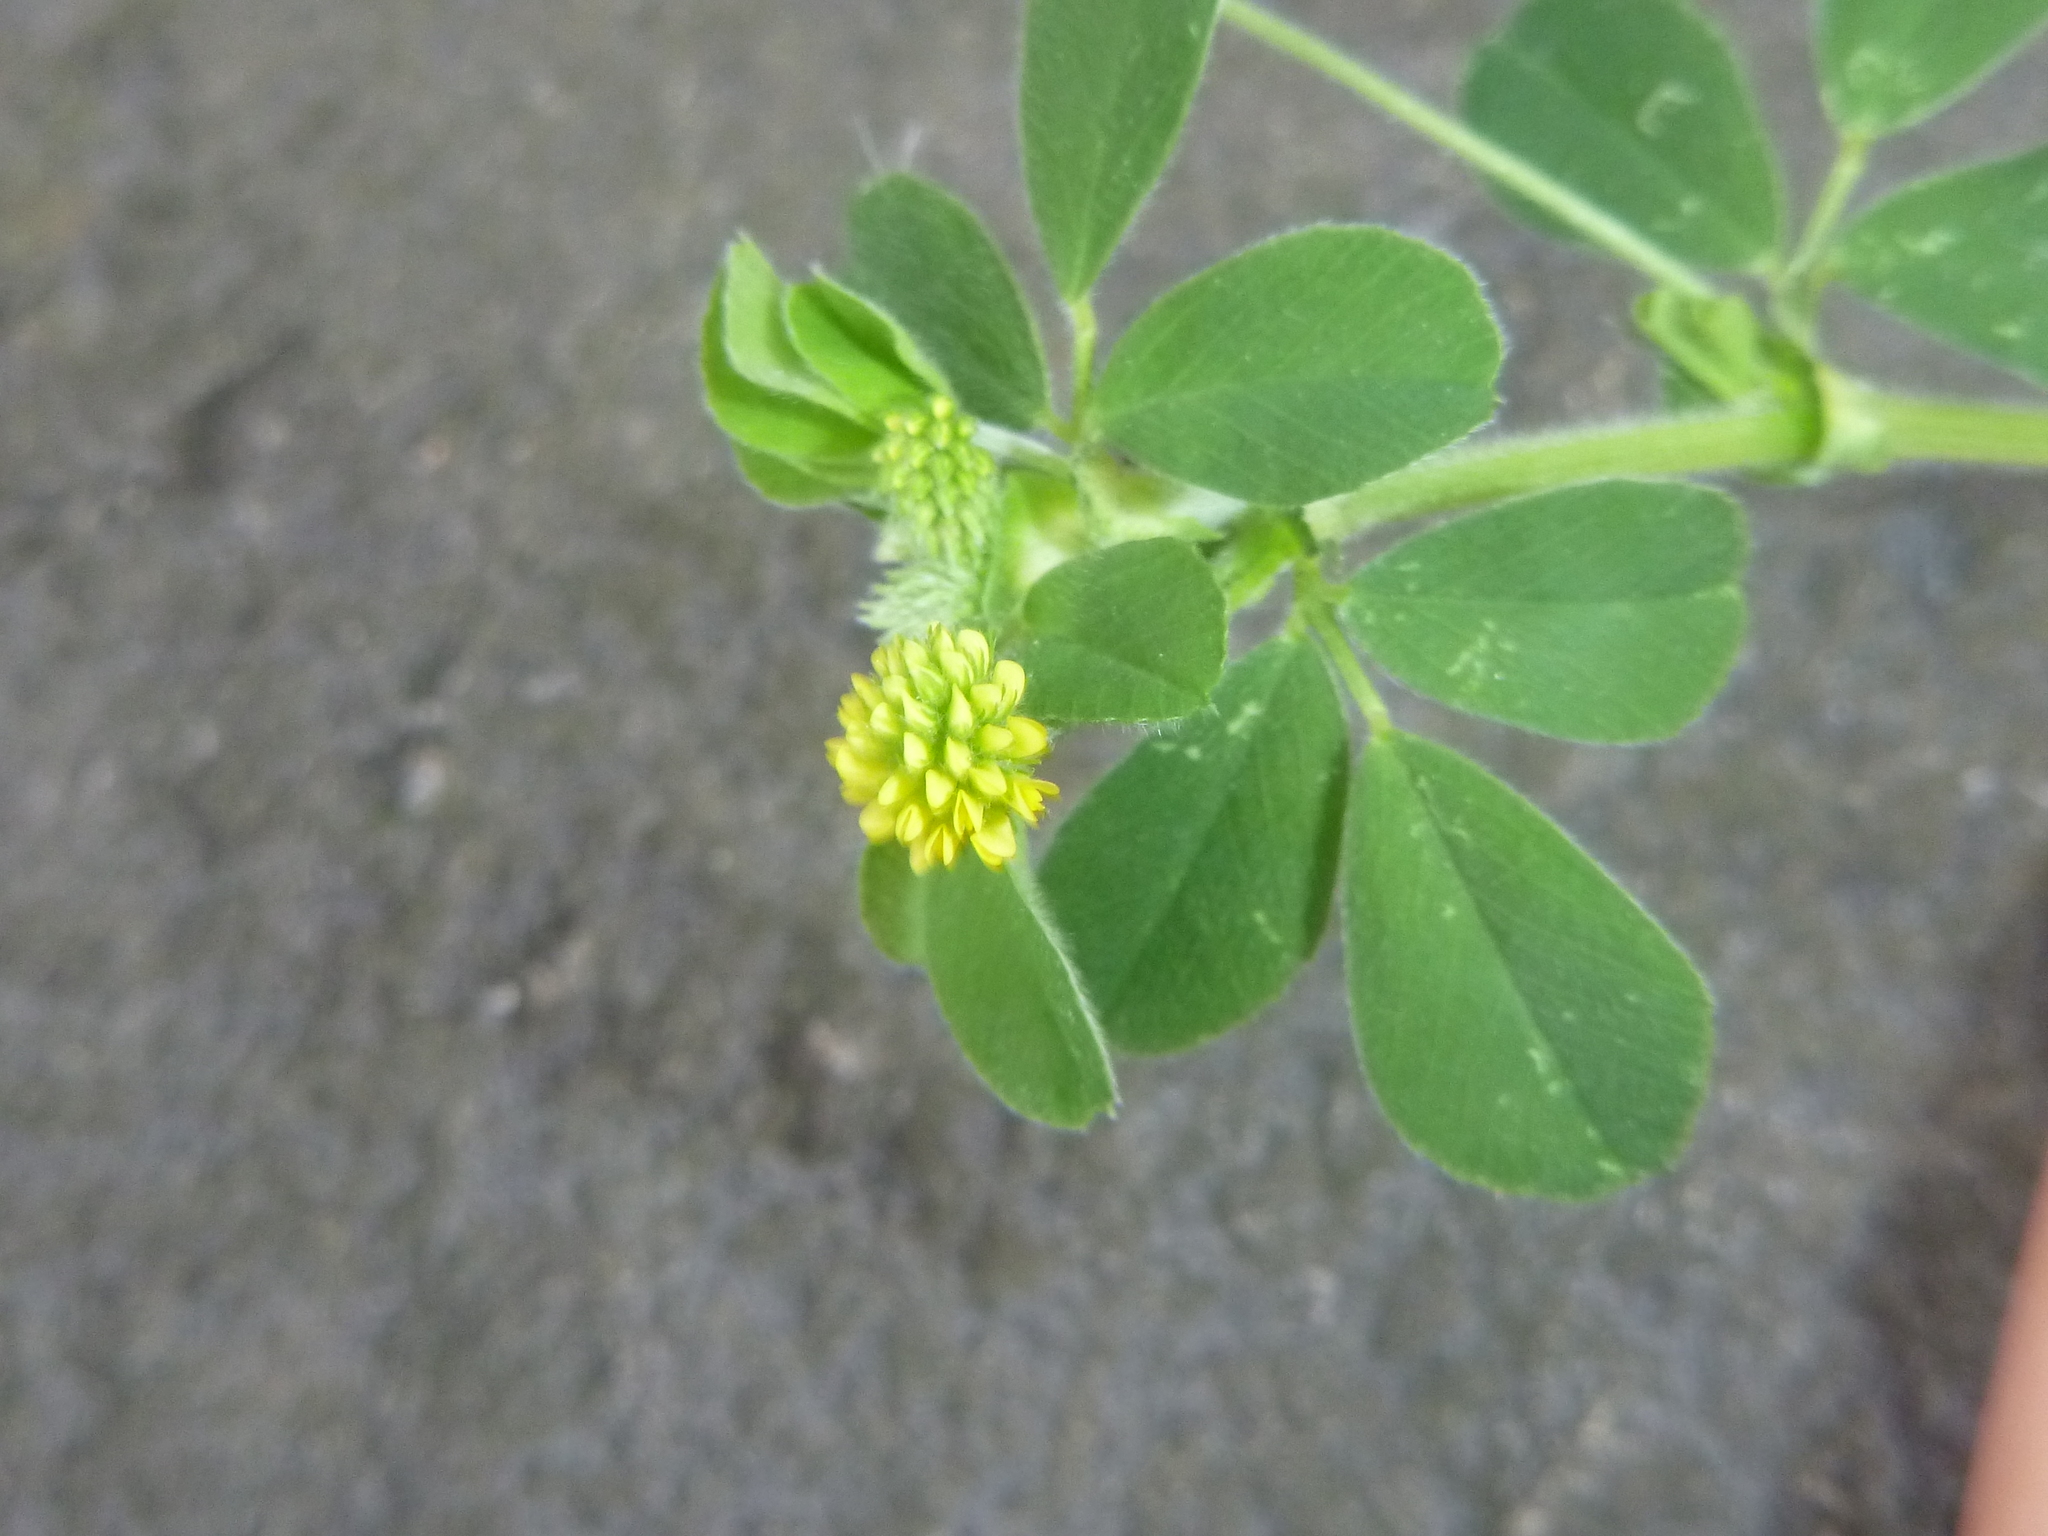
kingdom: Plantae
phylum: Tracheophyta
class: Magnoliopsida
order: Fabales
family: Fabaceae
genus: Medicago
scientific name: Medicago lupulina
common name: Black medick
